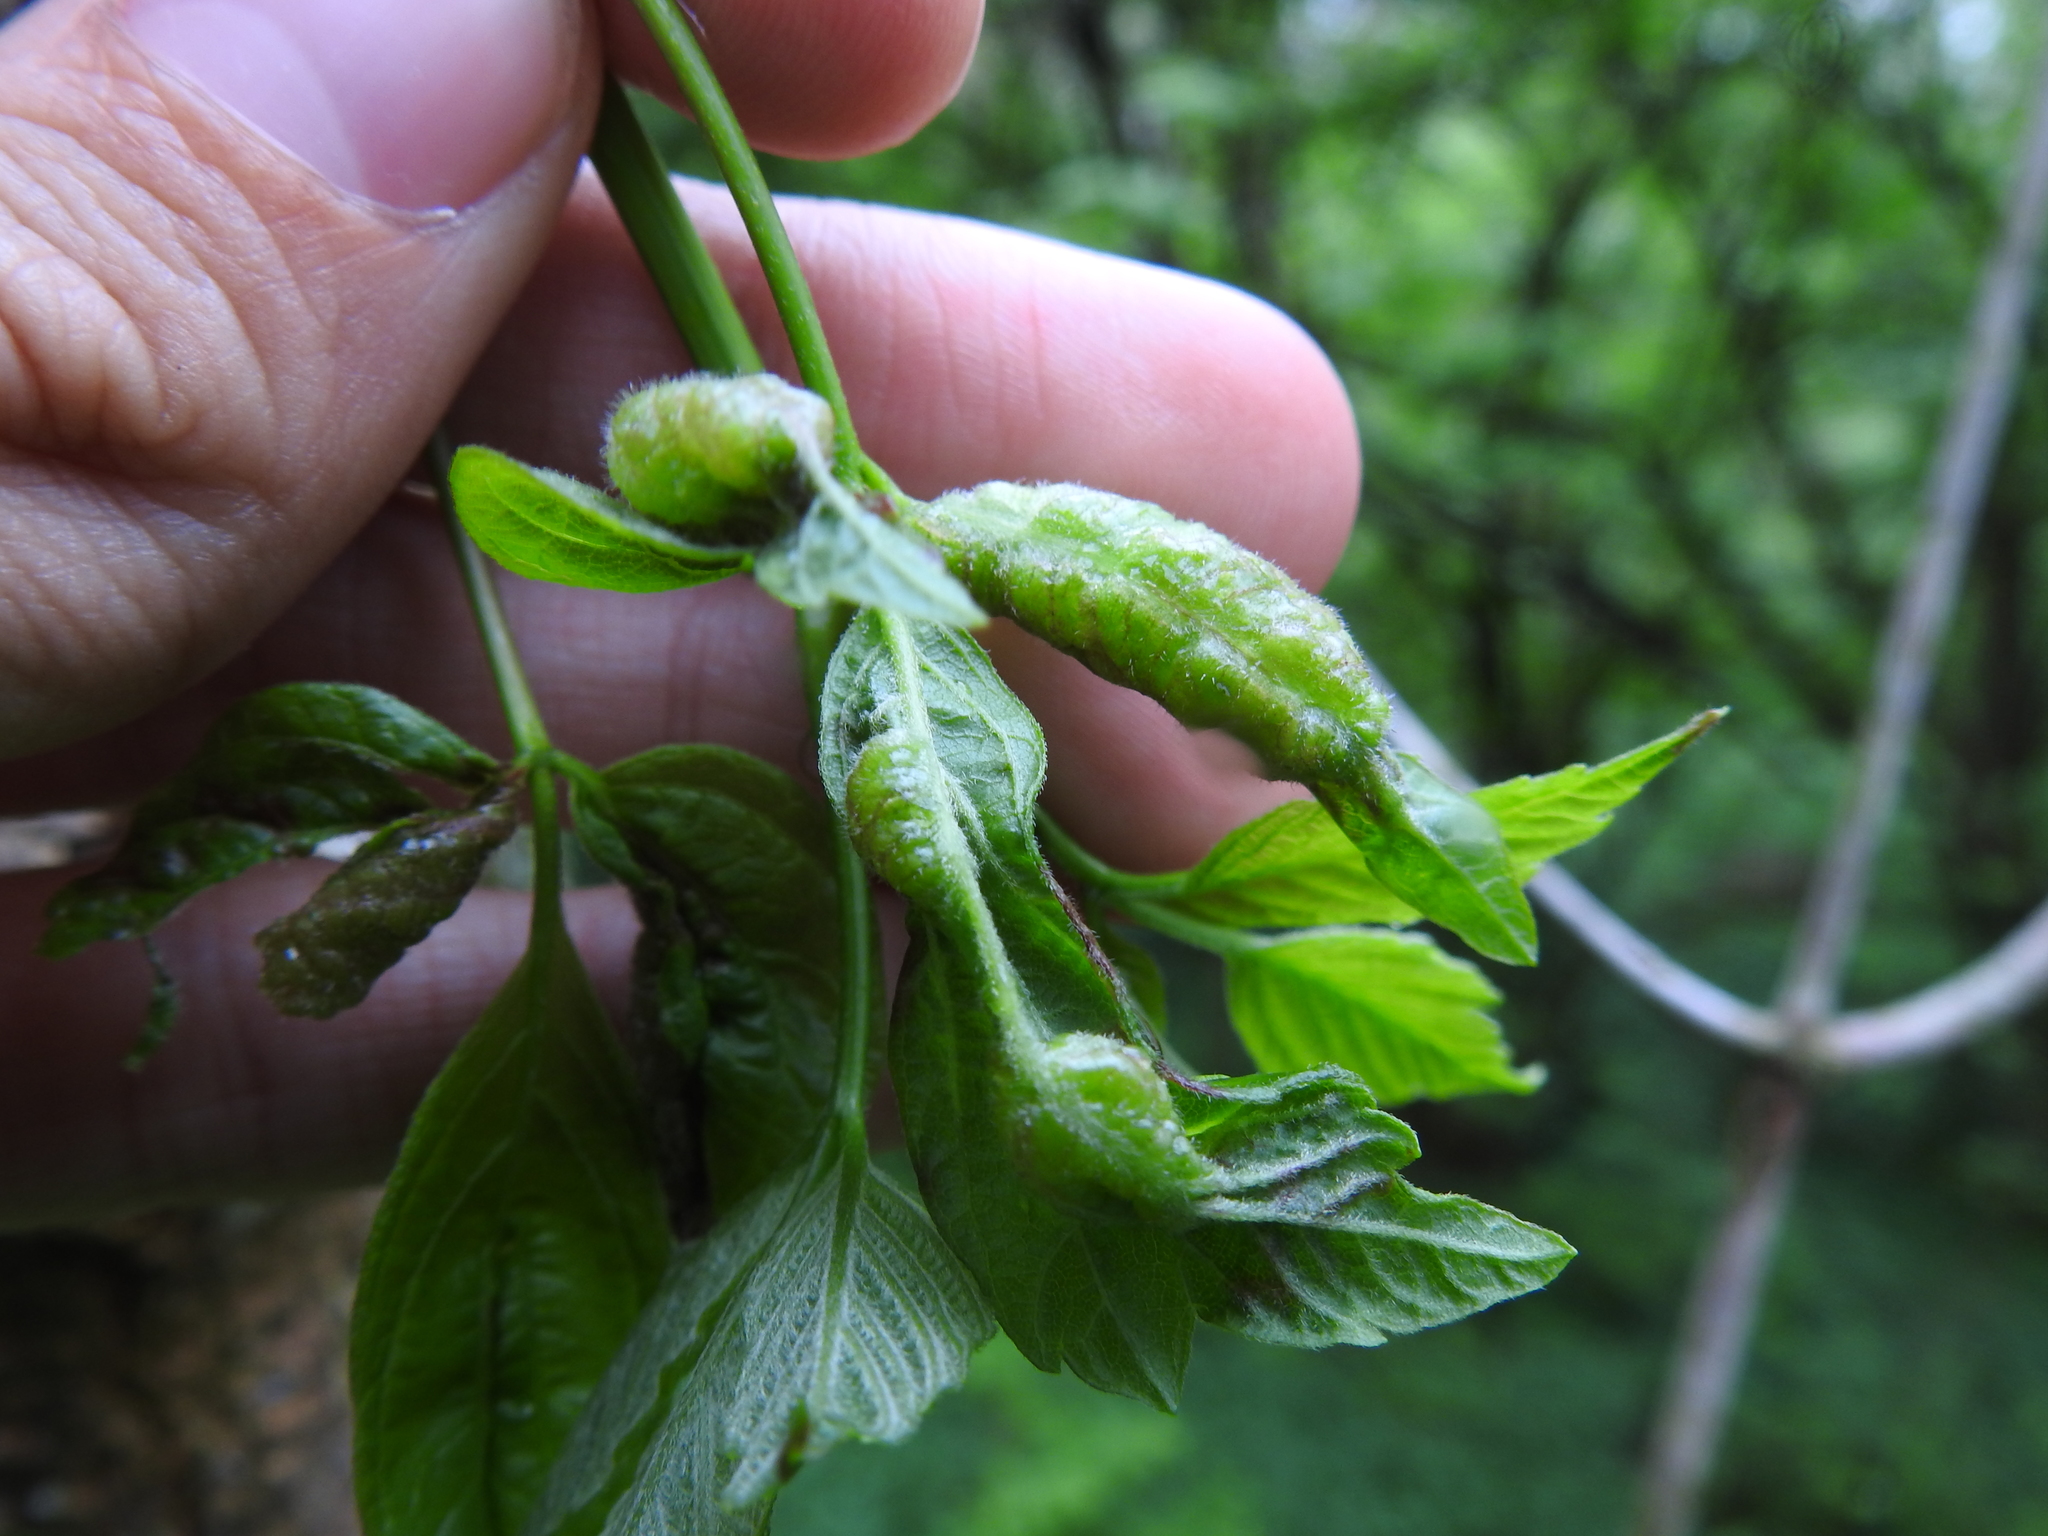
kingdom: Animalia
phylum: Arthropoda
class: Insecta
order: Diptera
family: Cecidomyiidae
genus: Contarinia
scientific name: Contarinia negundinis
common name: Boxelder budgall midge
